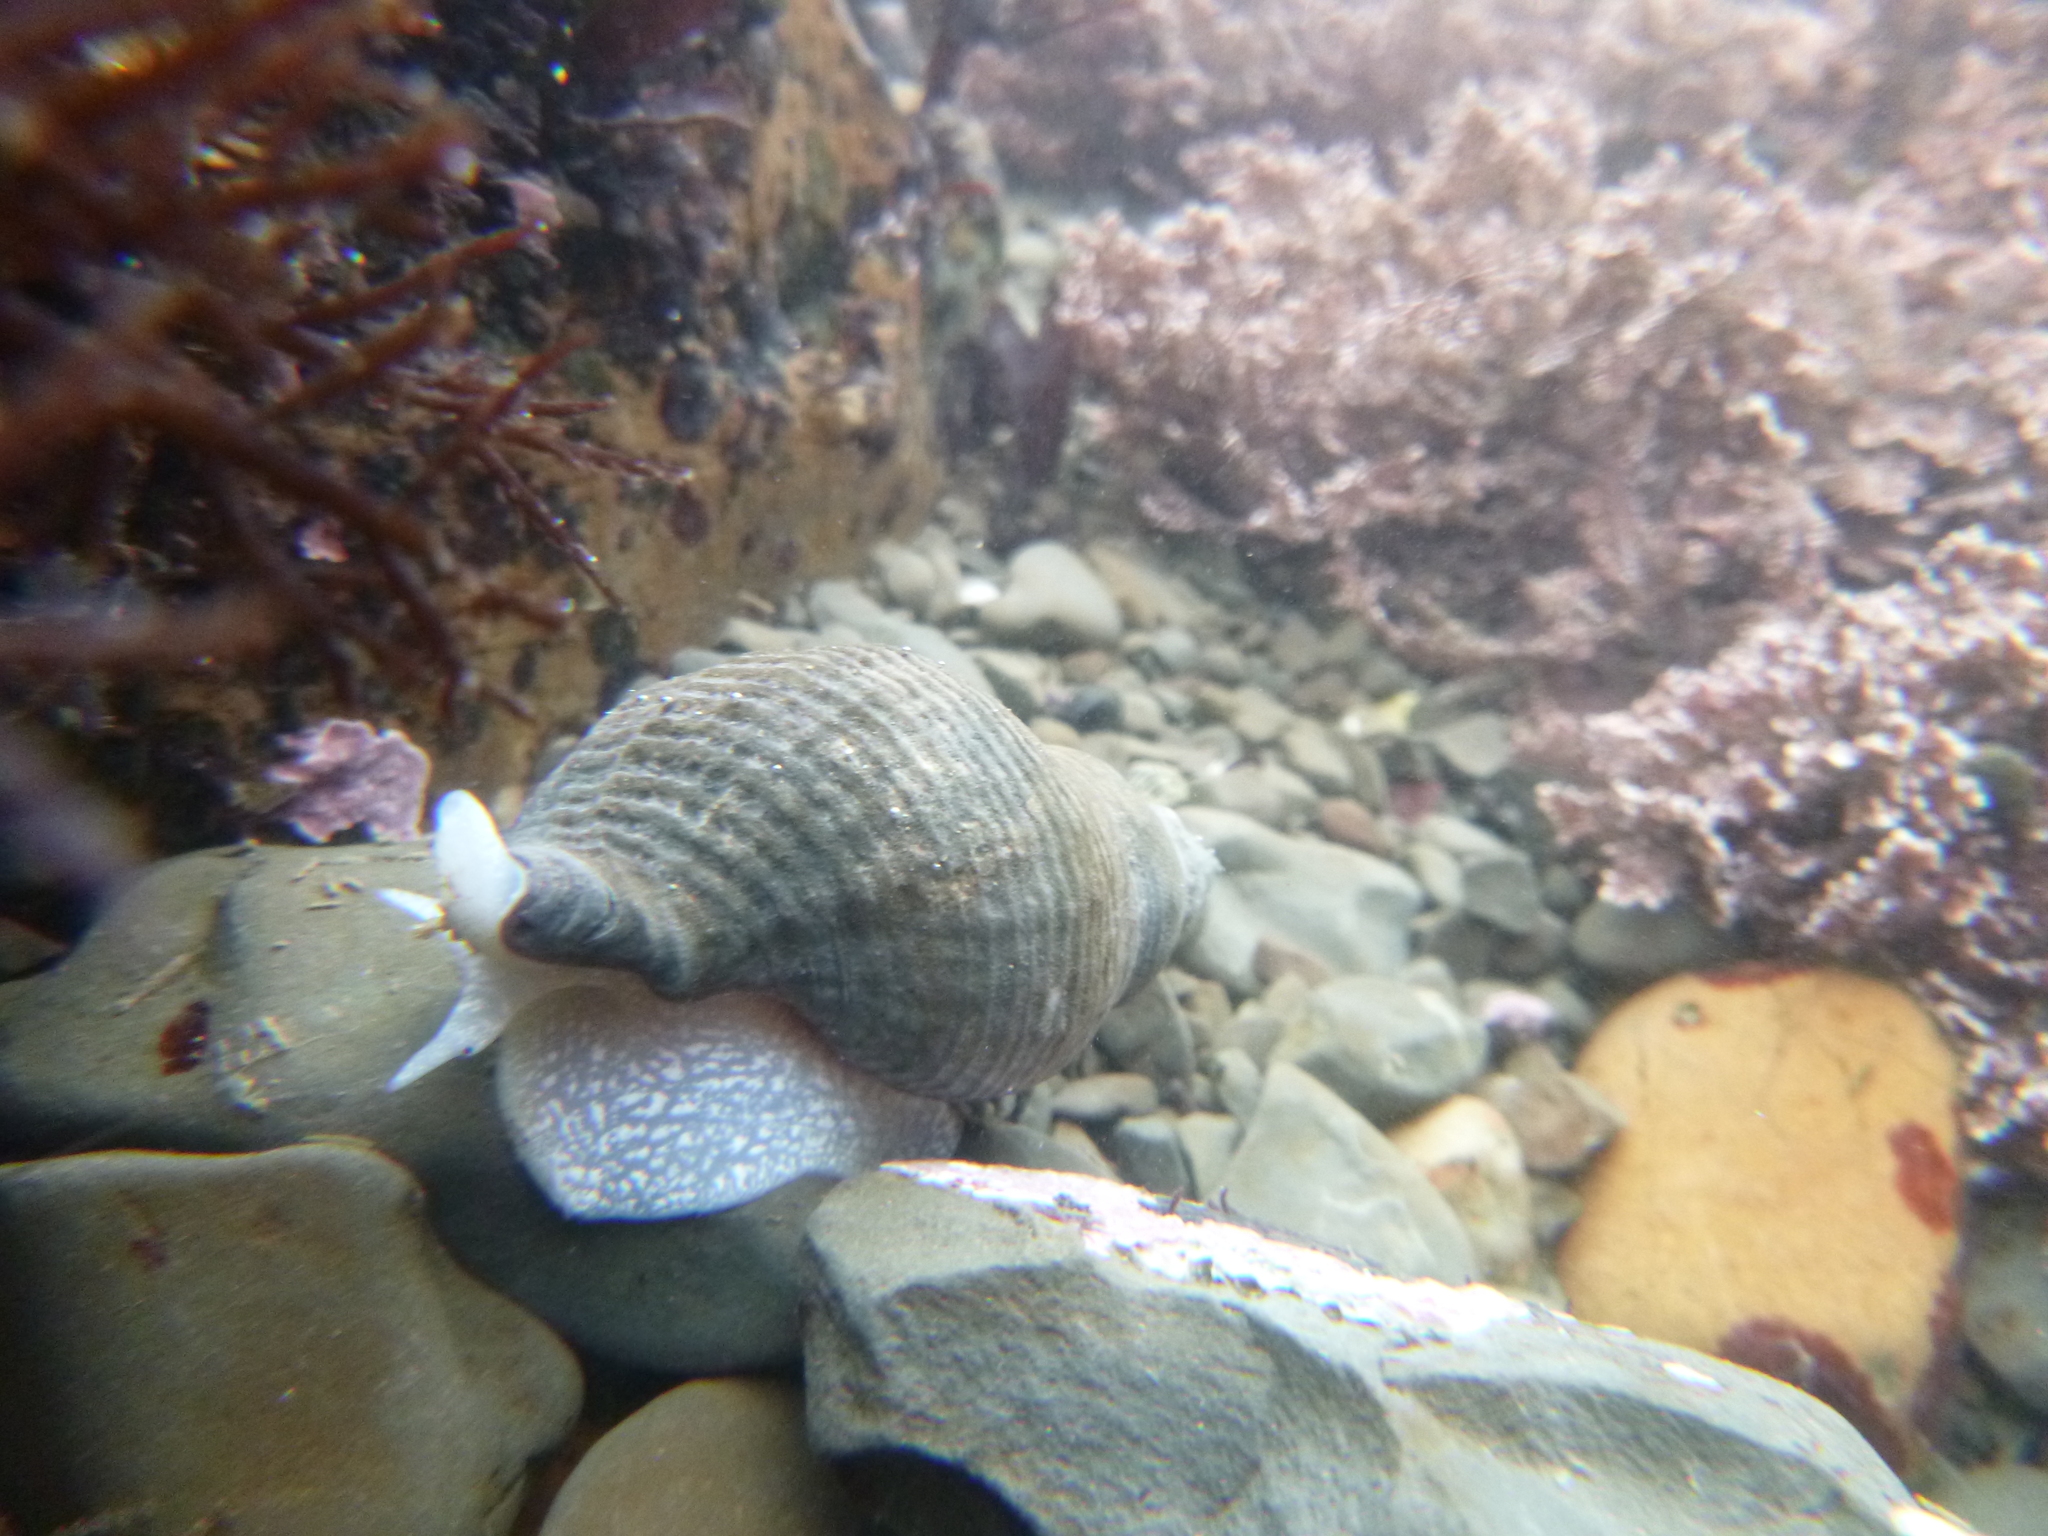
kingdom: Animalia
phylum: Mollusca
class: Gastropoda
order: Neogastropoda
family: Tudiclidae
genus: Lirabuccinum
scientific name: Lirabuccinum dirum
